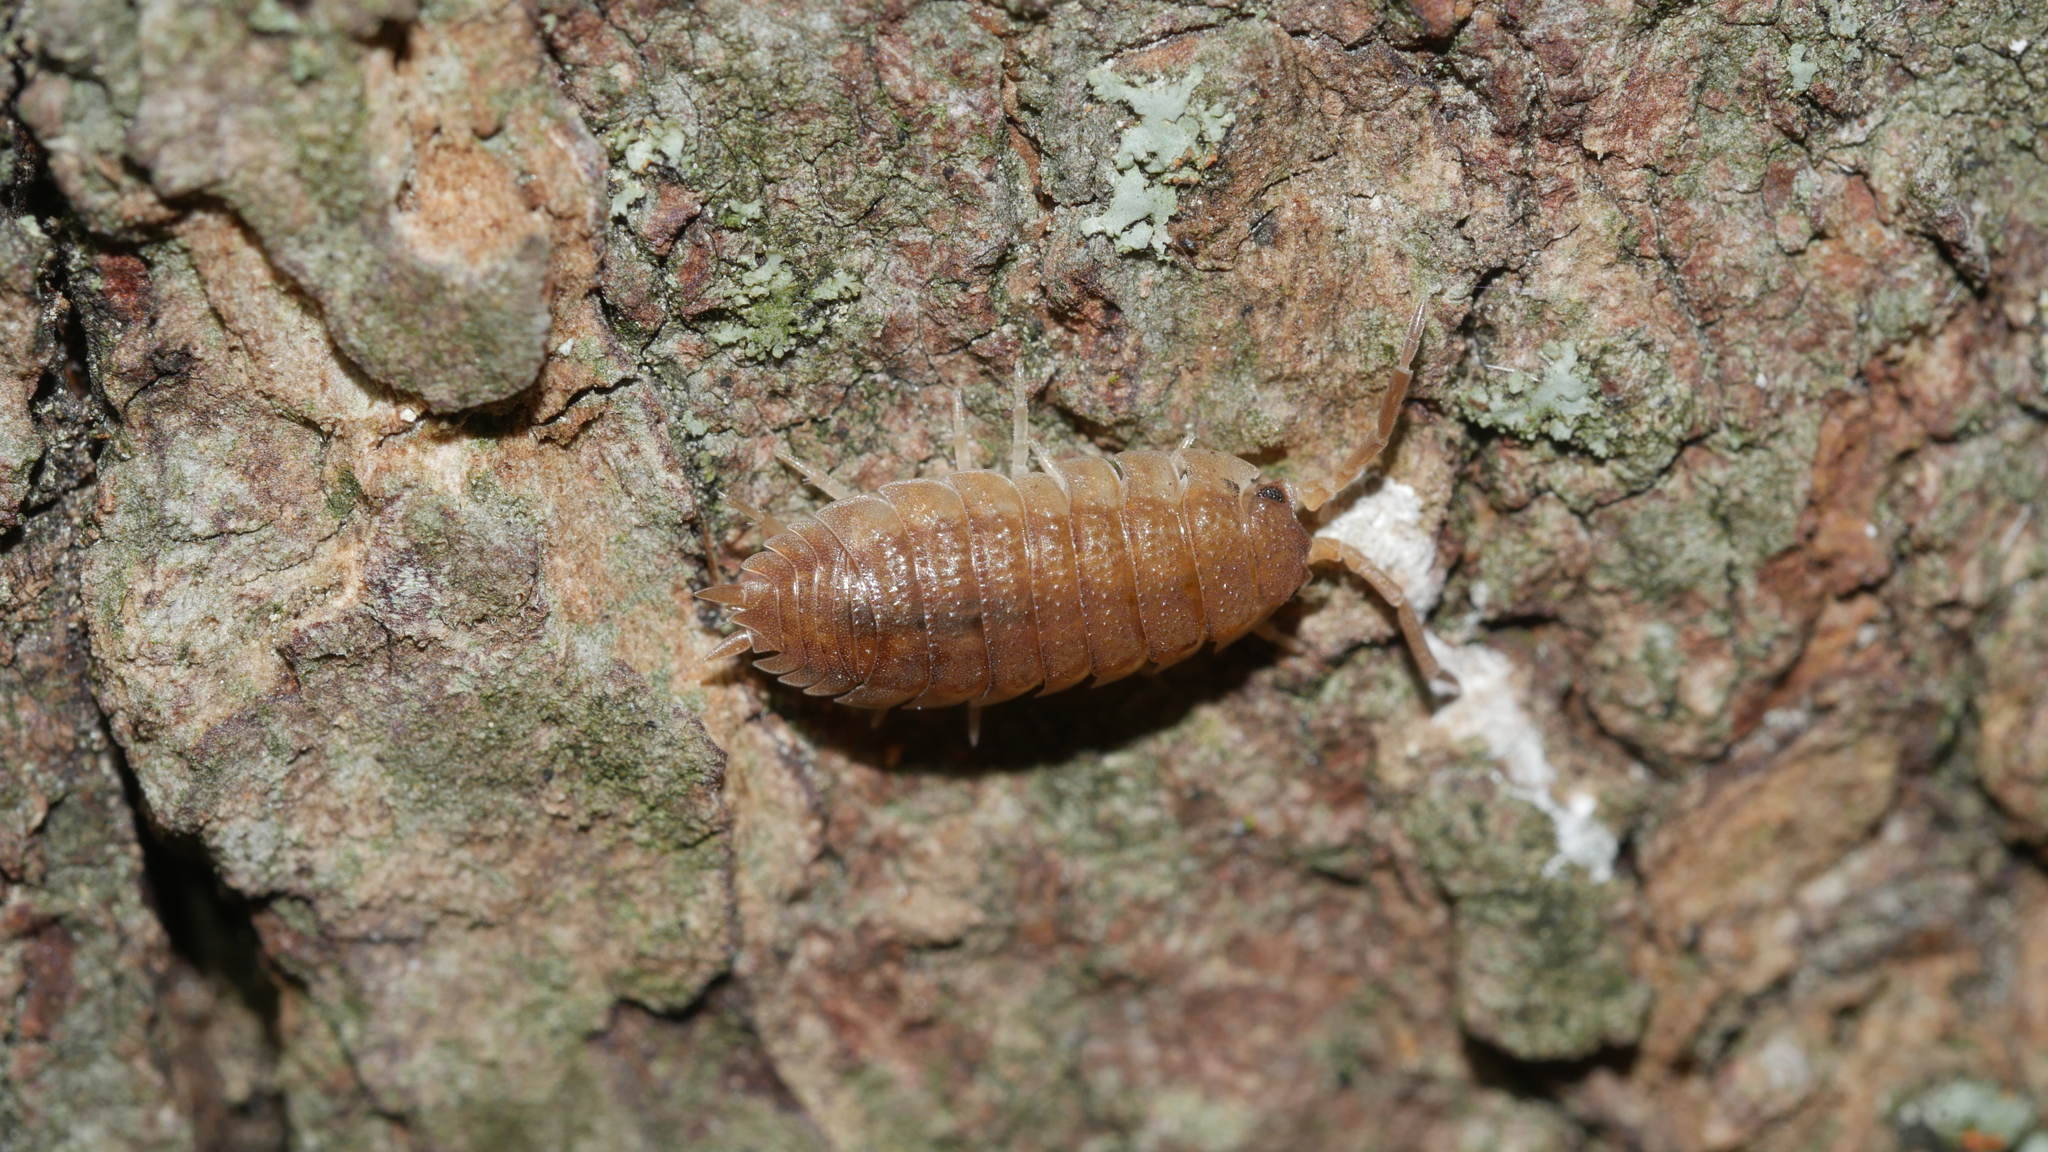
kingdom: Animalia
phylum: Arthropoda
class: Malacostraca
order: Isopoda
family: Porcellionidae
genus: Porcellio
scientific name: Porcellio scaber
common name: Common rough woodlouse
